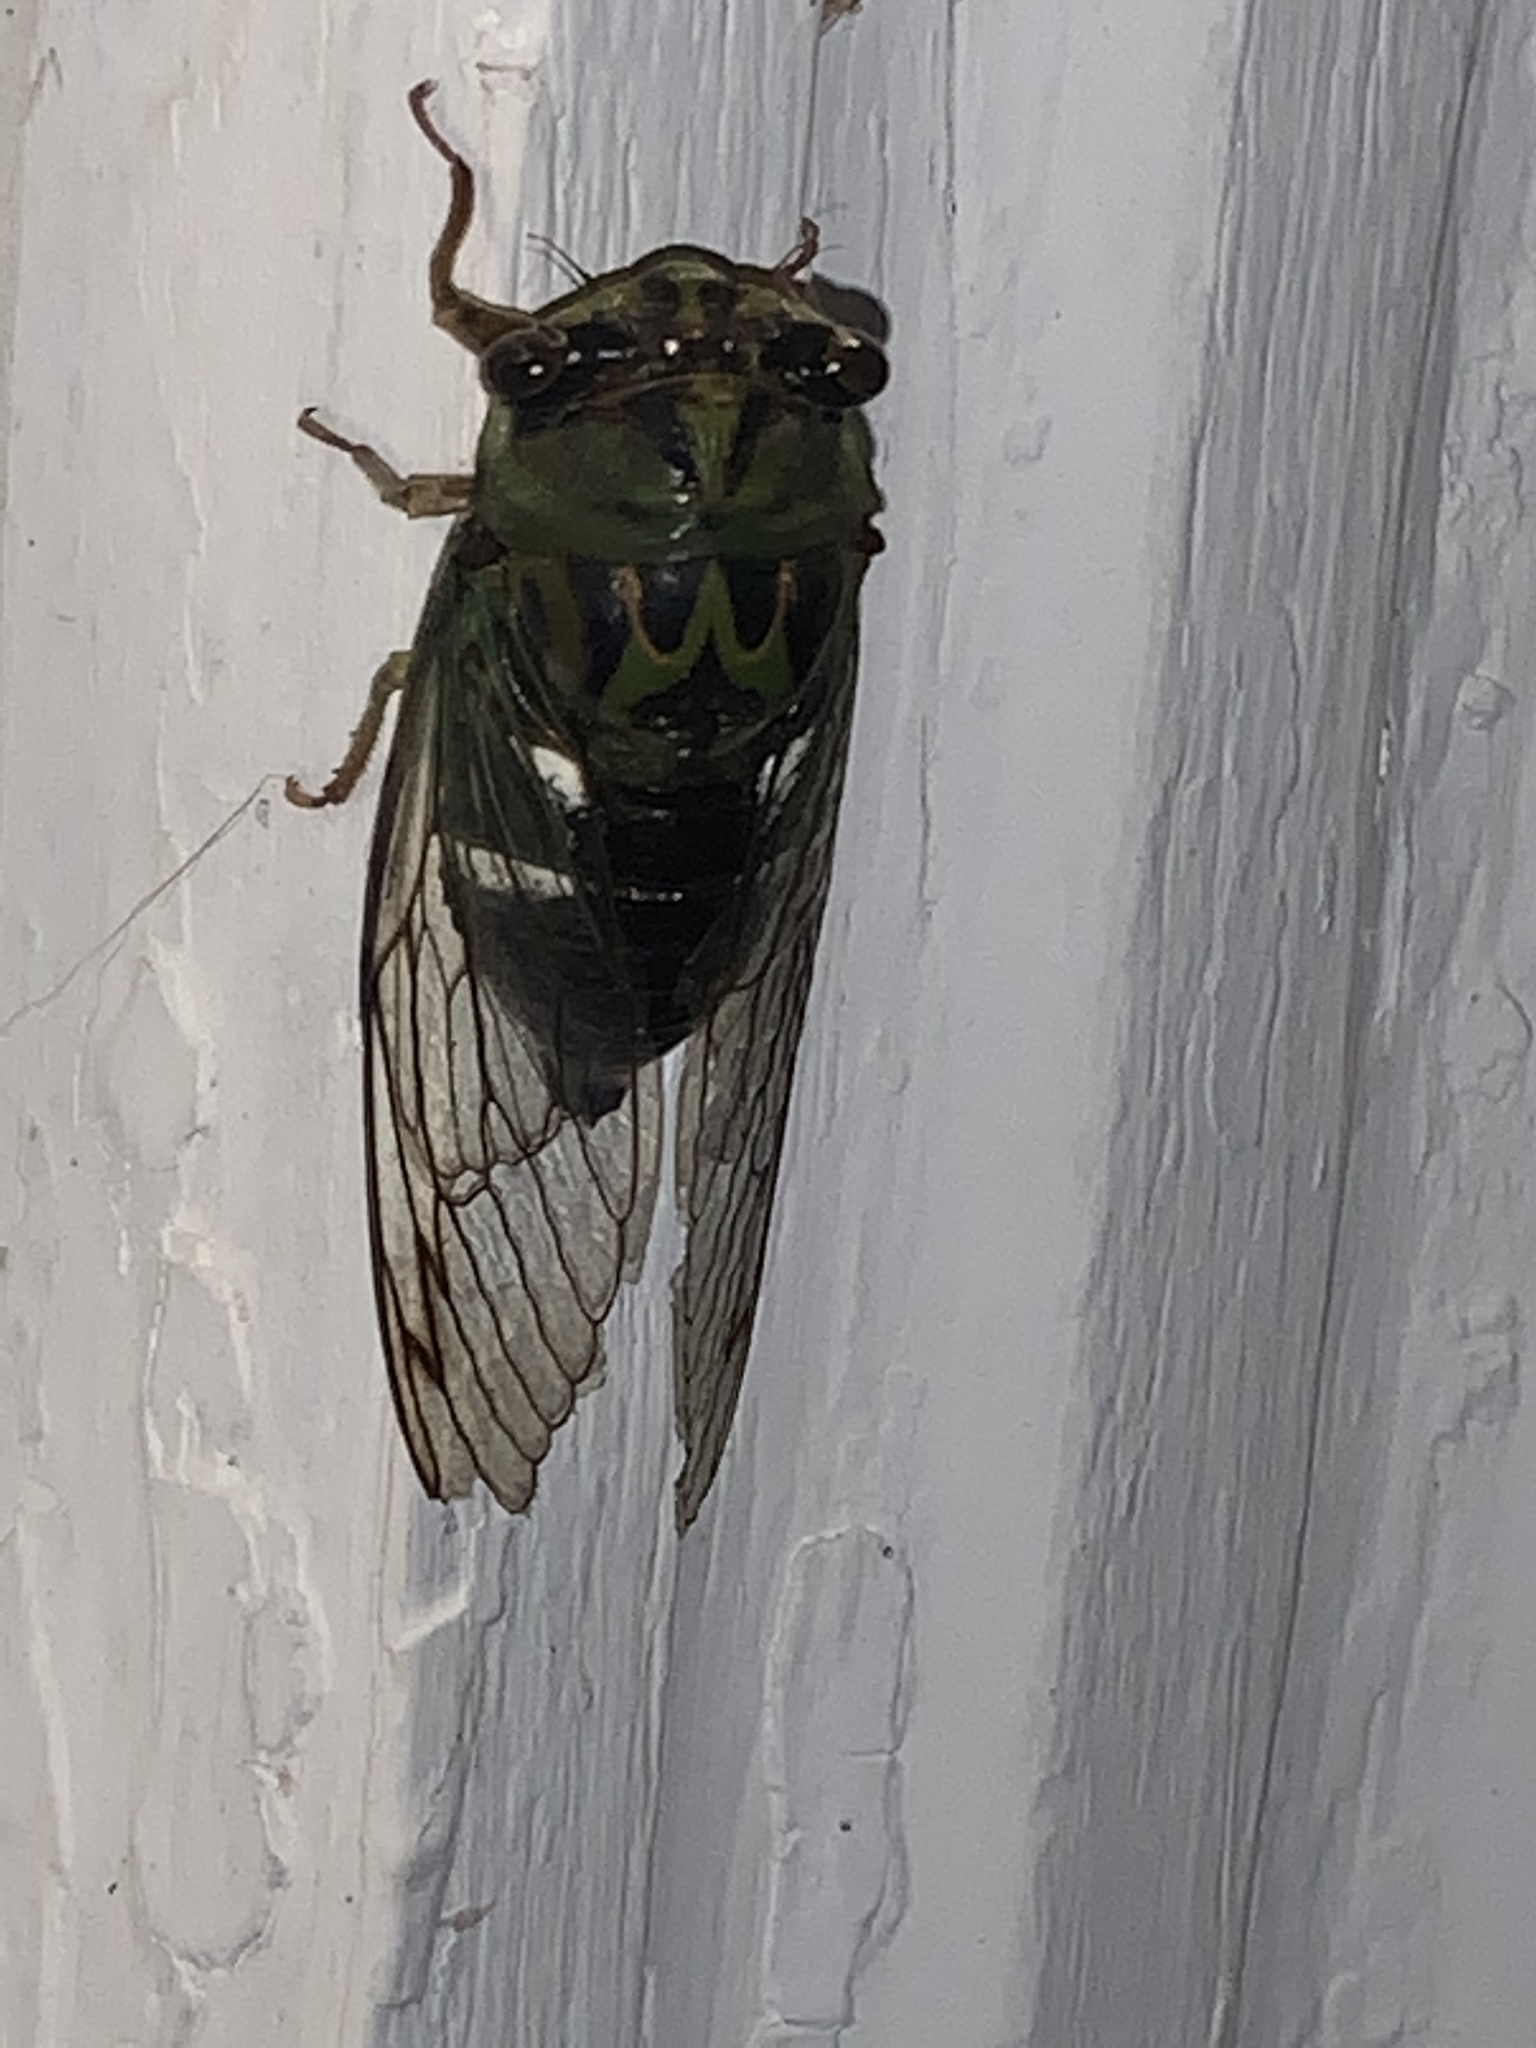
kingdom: Animalia
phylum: Arthropoda
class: Insecta
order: Hemiptera
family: Cicadidae
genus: Neotibicen
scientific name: Neotibicen latifasciatus
